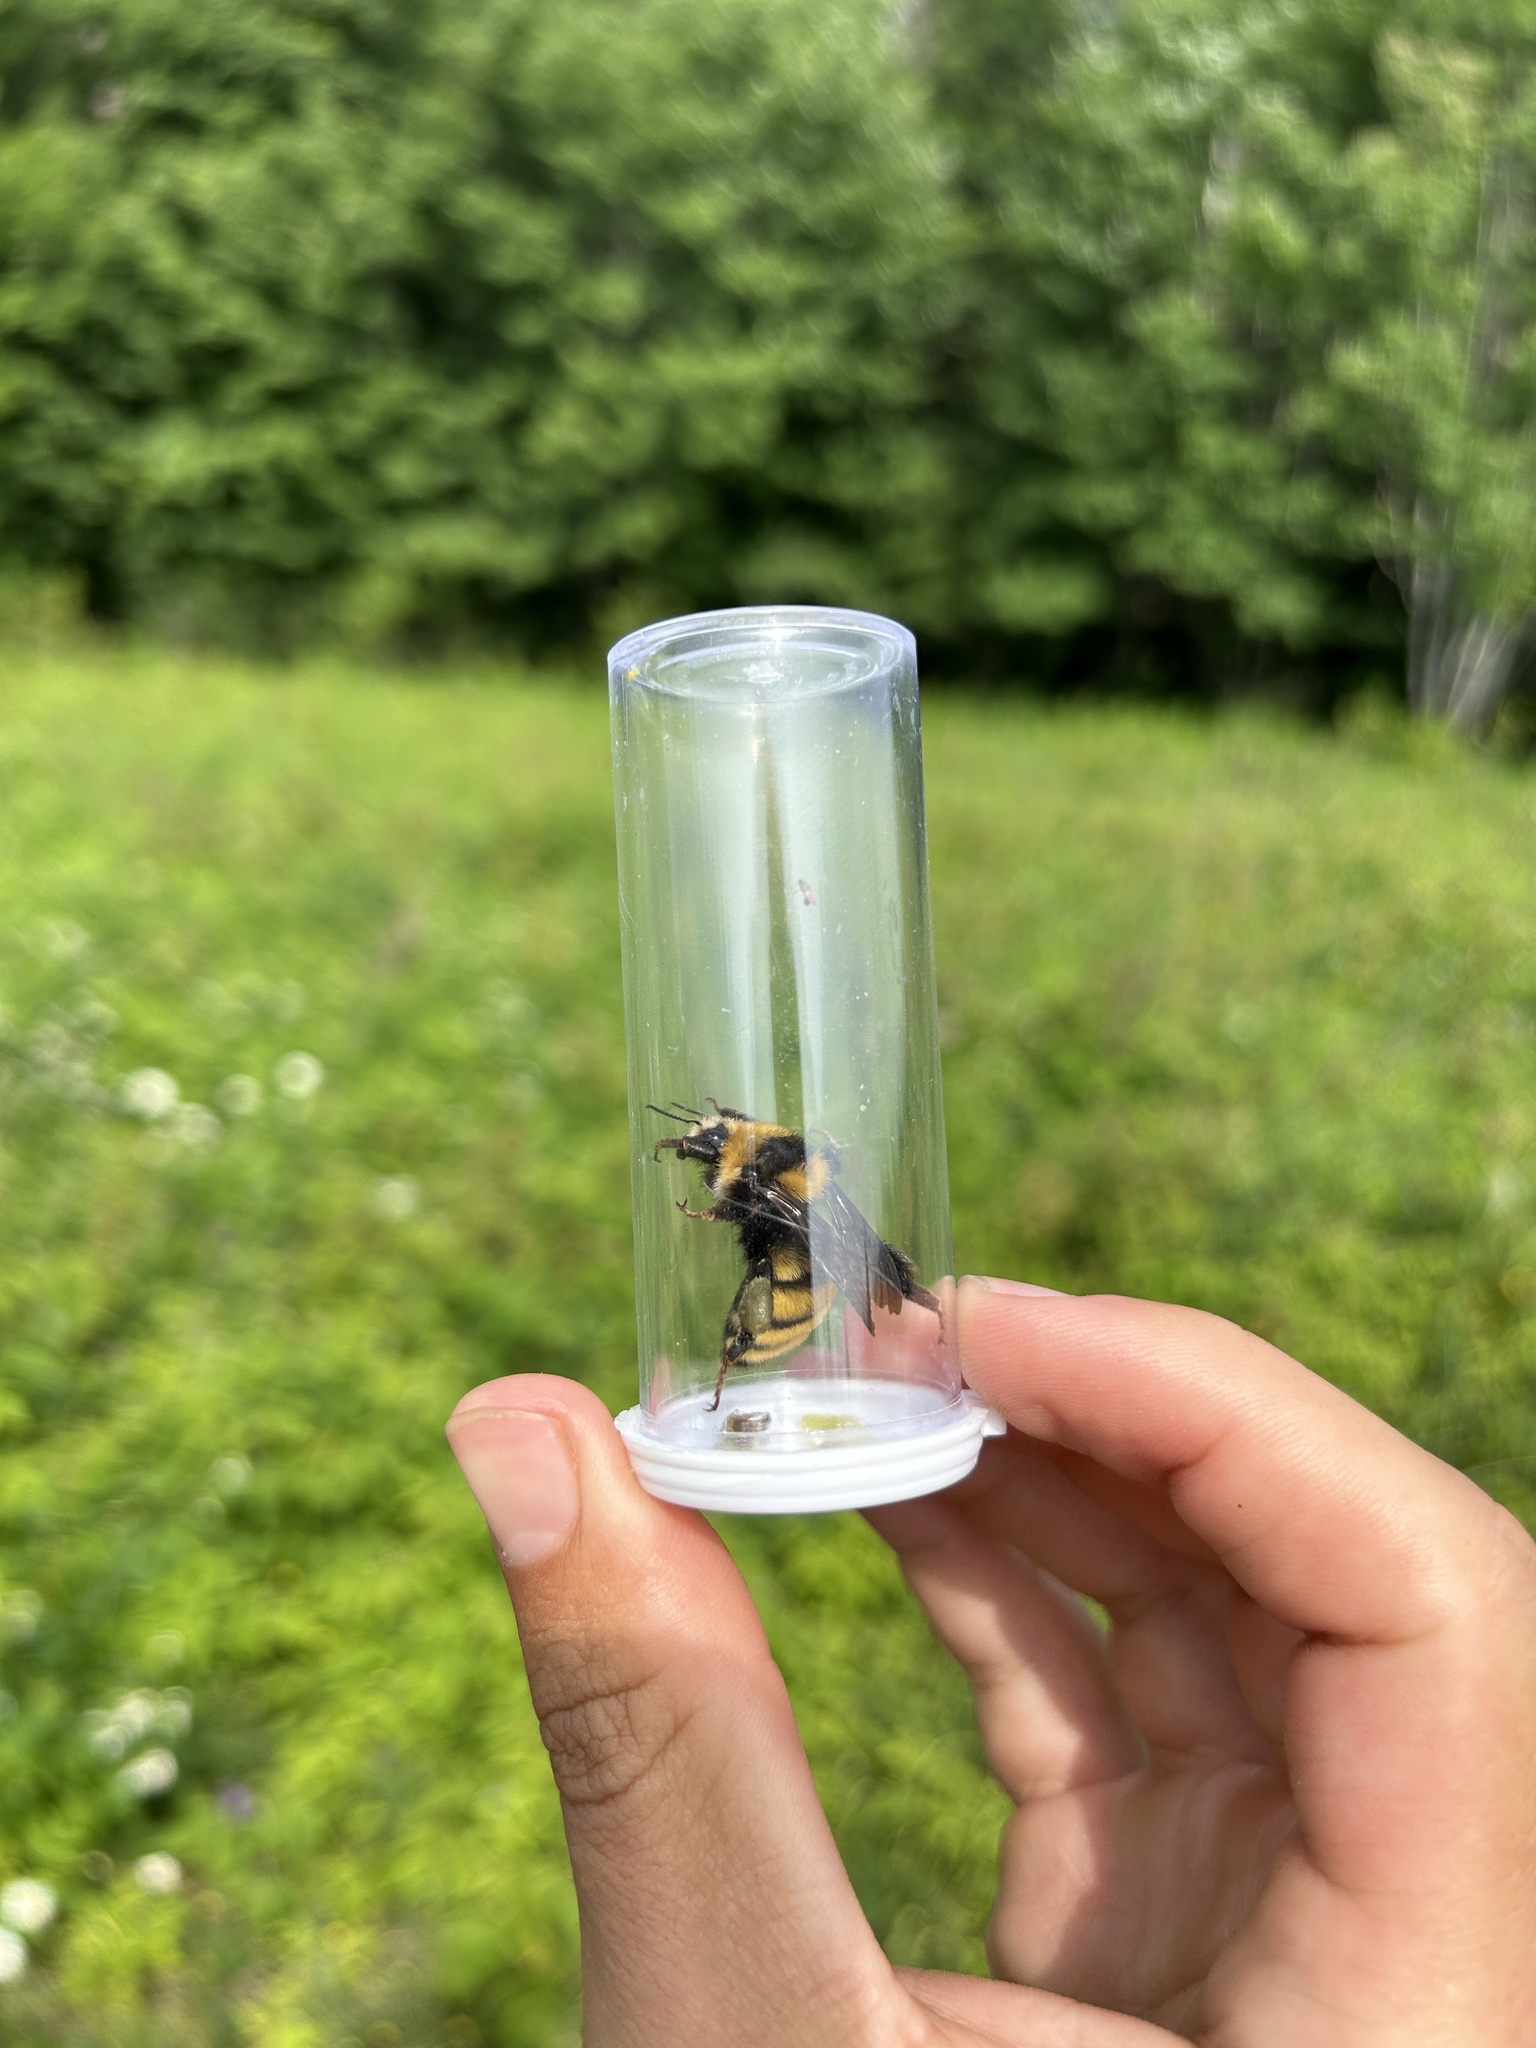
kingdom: Animalia
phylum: Arthropoda
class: Insecta
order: Hymenoptera
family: Apidae
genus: Bombus
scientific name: Bombus borealis
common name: Northern amber bumble bee
